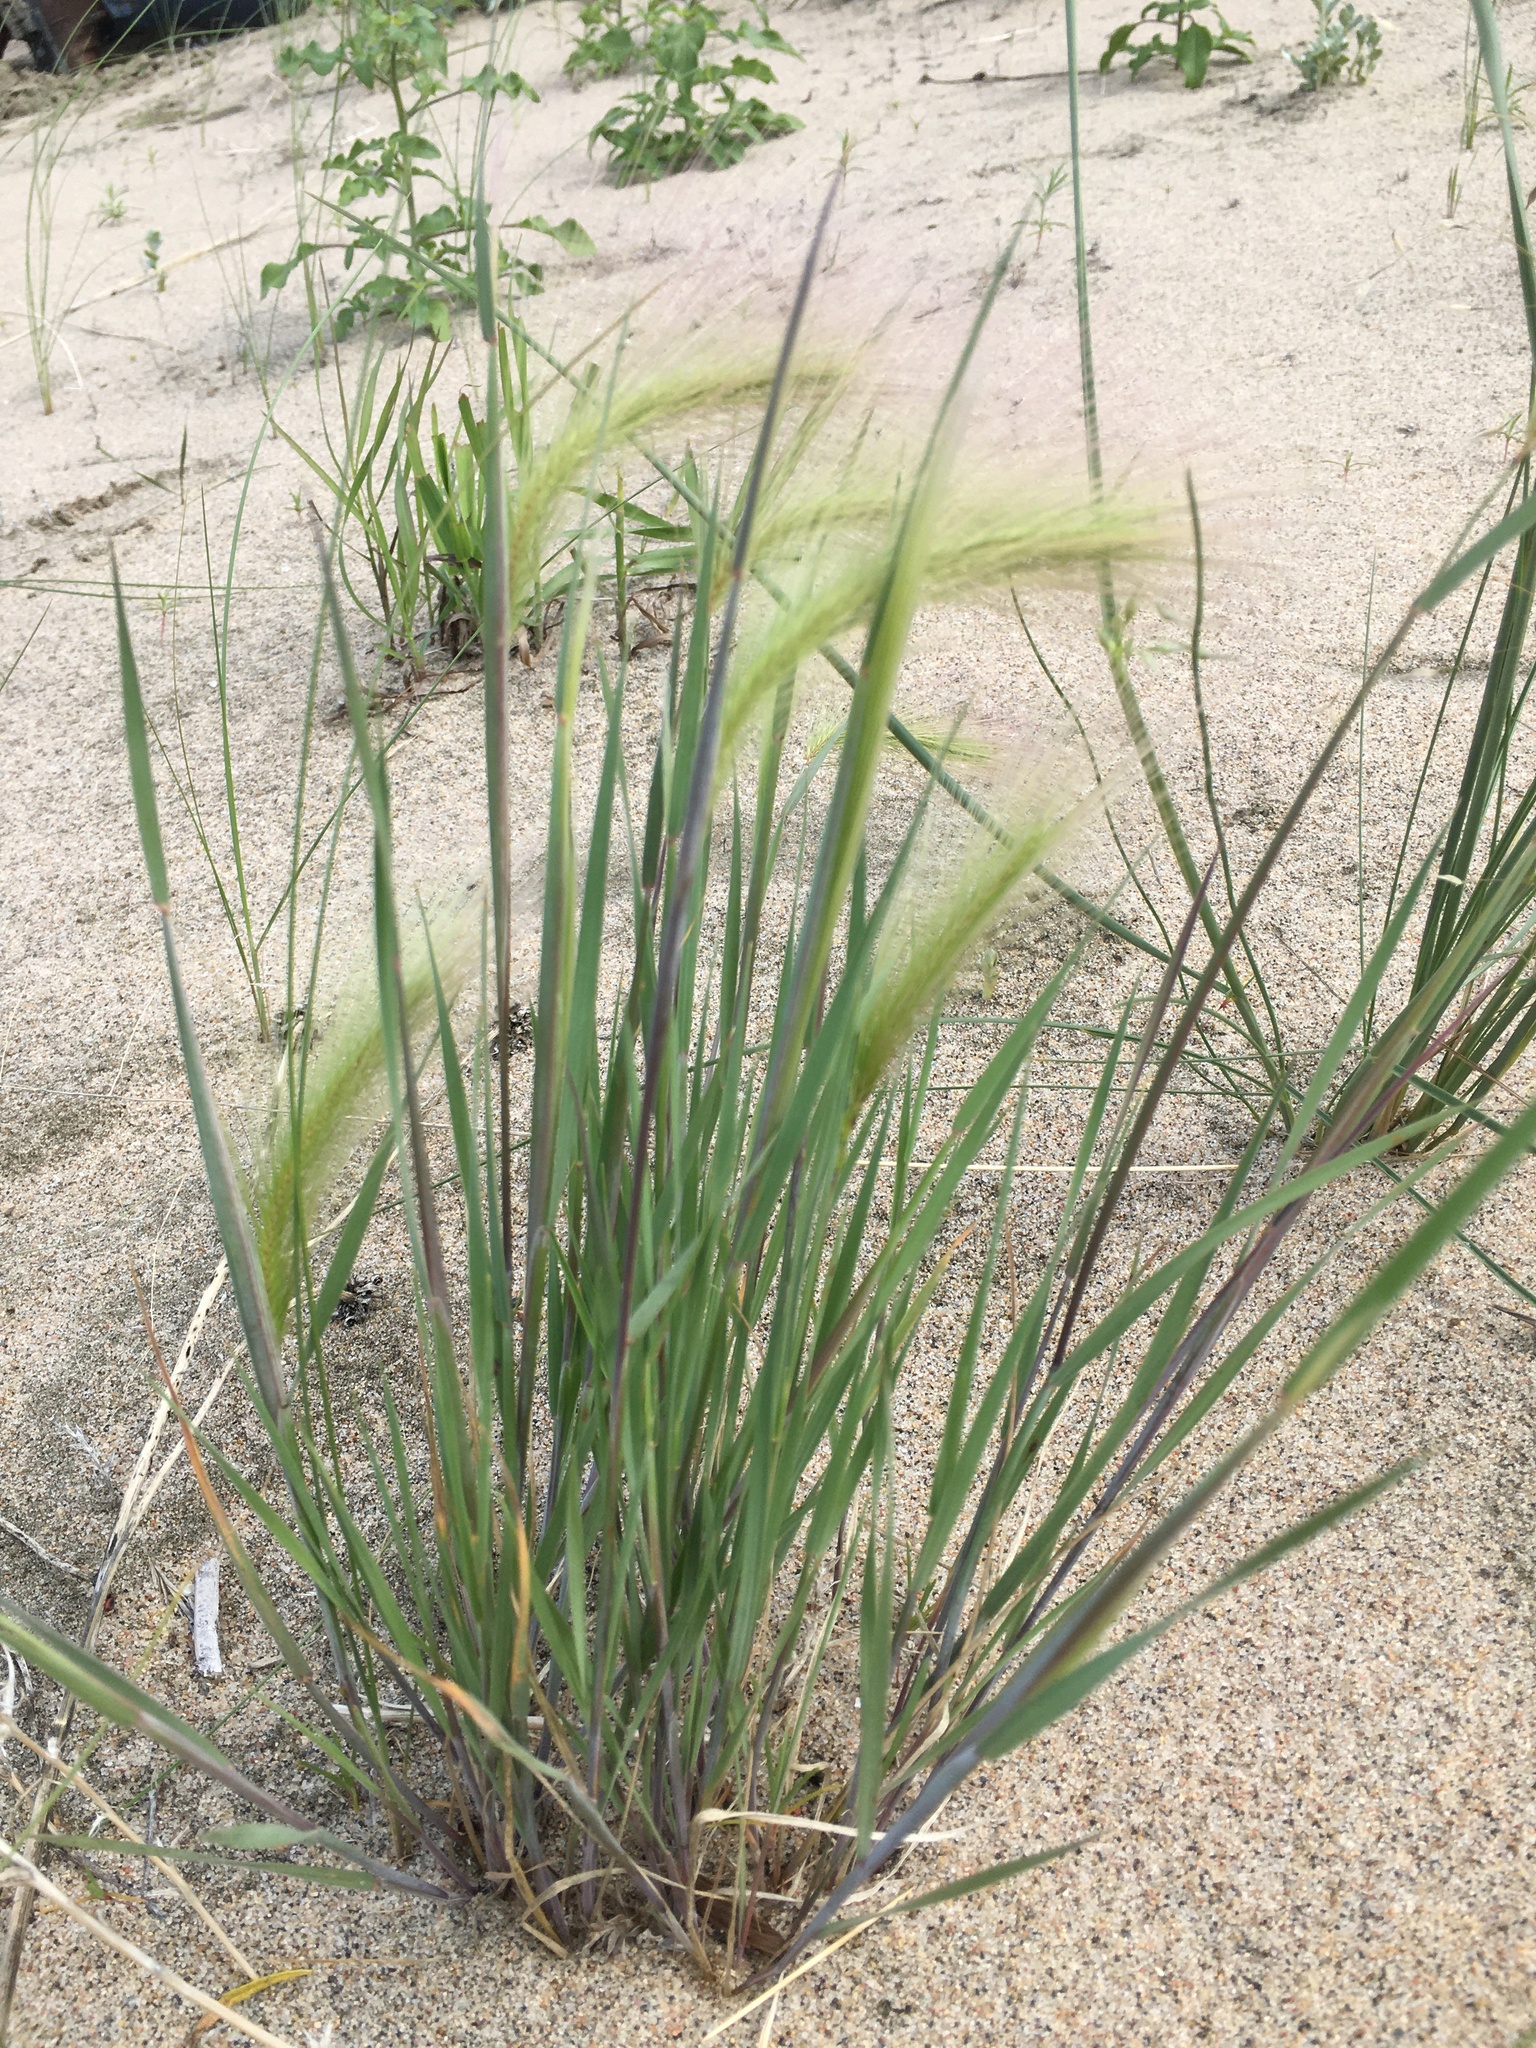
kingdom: Plantae
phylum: Tracheophyta
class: Liliopsida
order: Poales
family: Poaceae
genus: Hordeum
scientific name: Hordeum jubatum
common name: Foxtail barley
